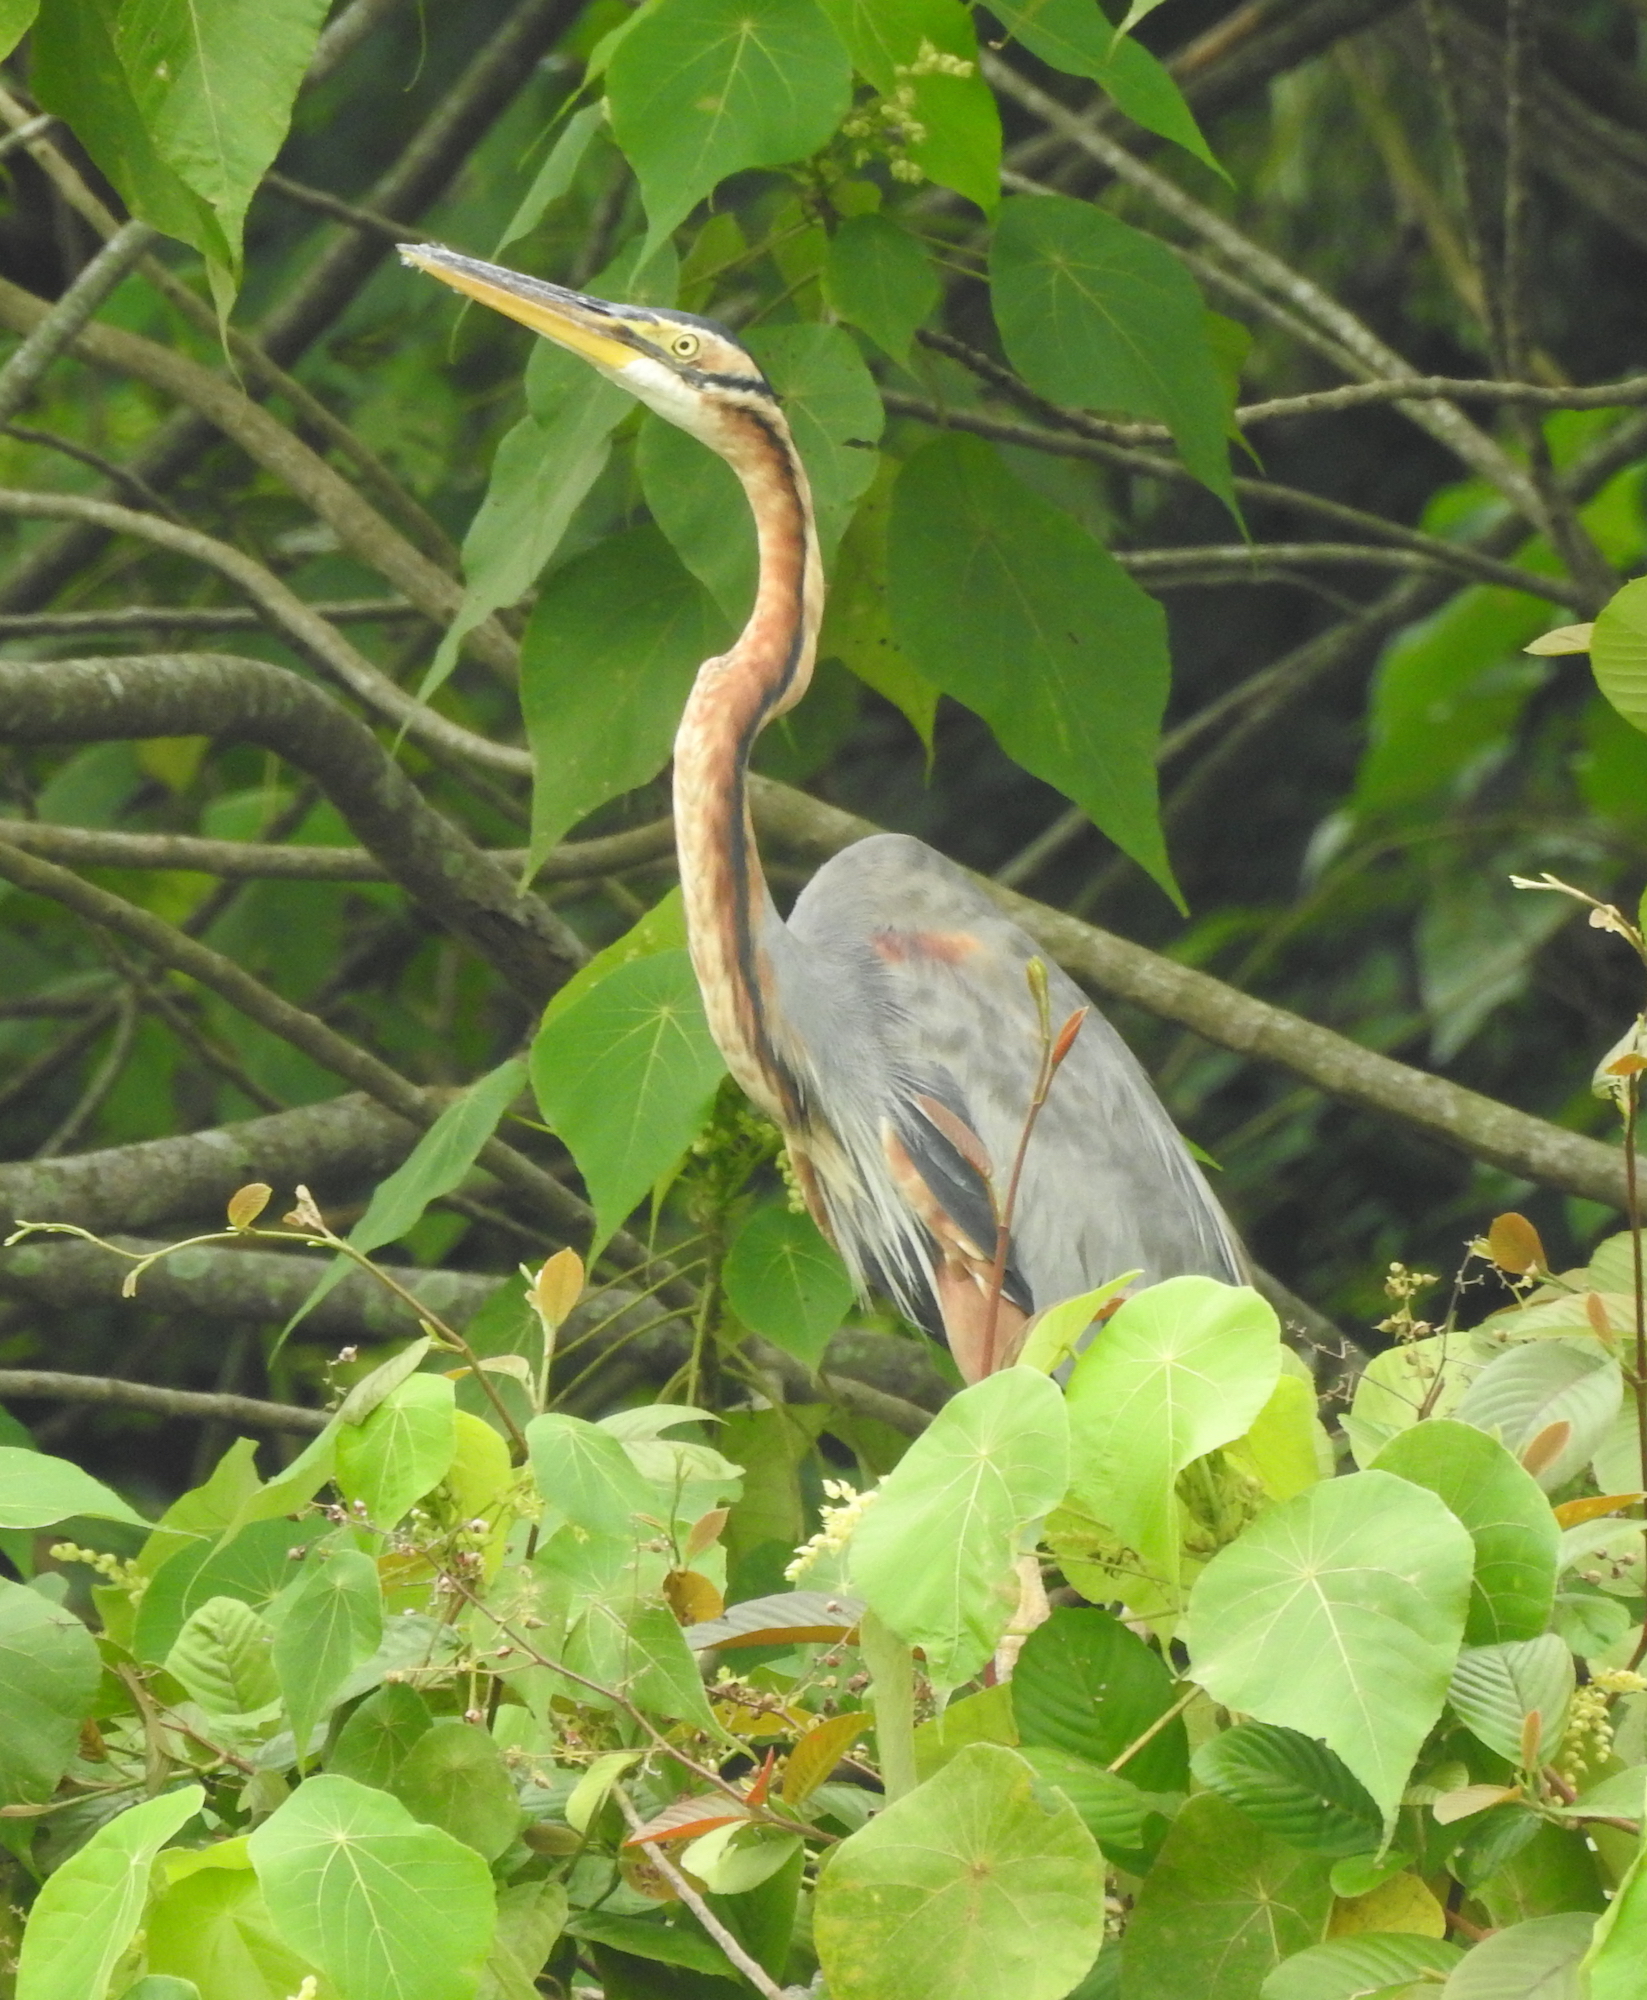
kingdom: Animalia
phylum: Chordata
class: Aves
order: Pelecaniformes
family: Ardeidae
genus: Ardea
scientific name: Ardea purpurea
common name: Purple heron
